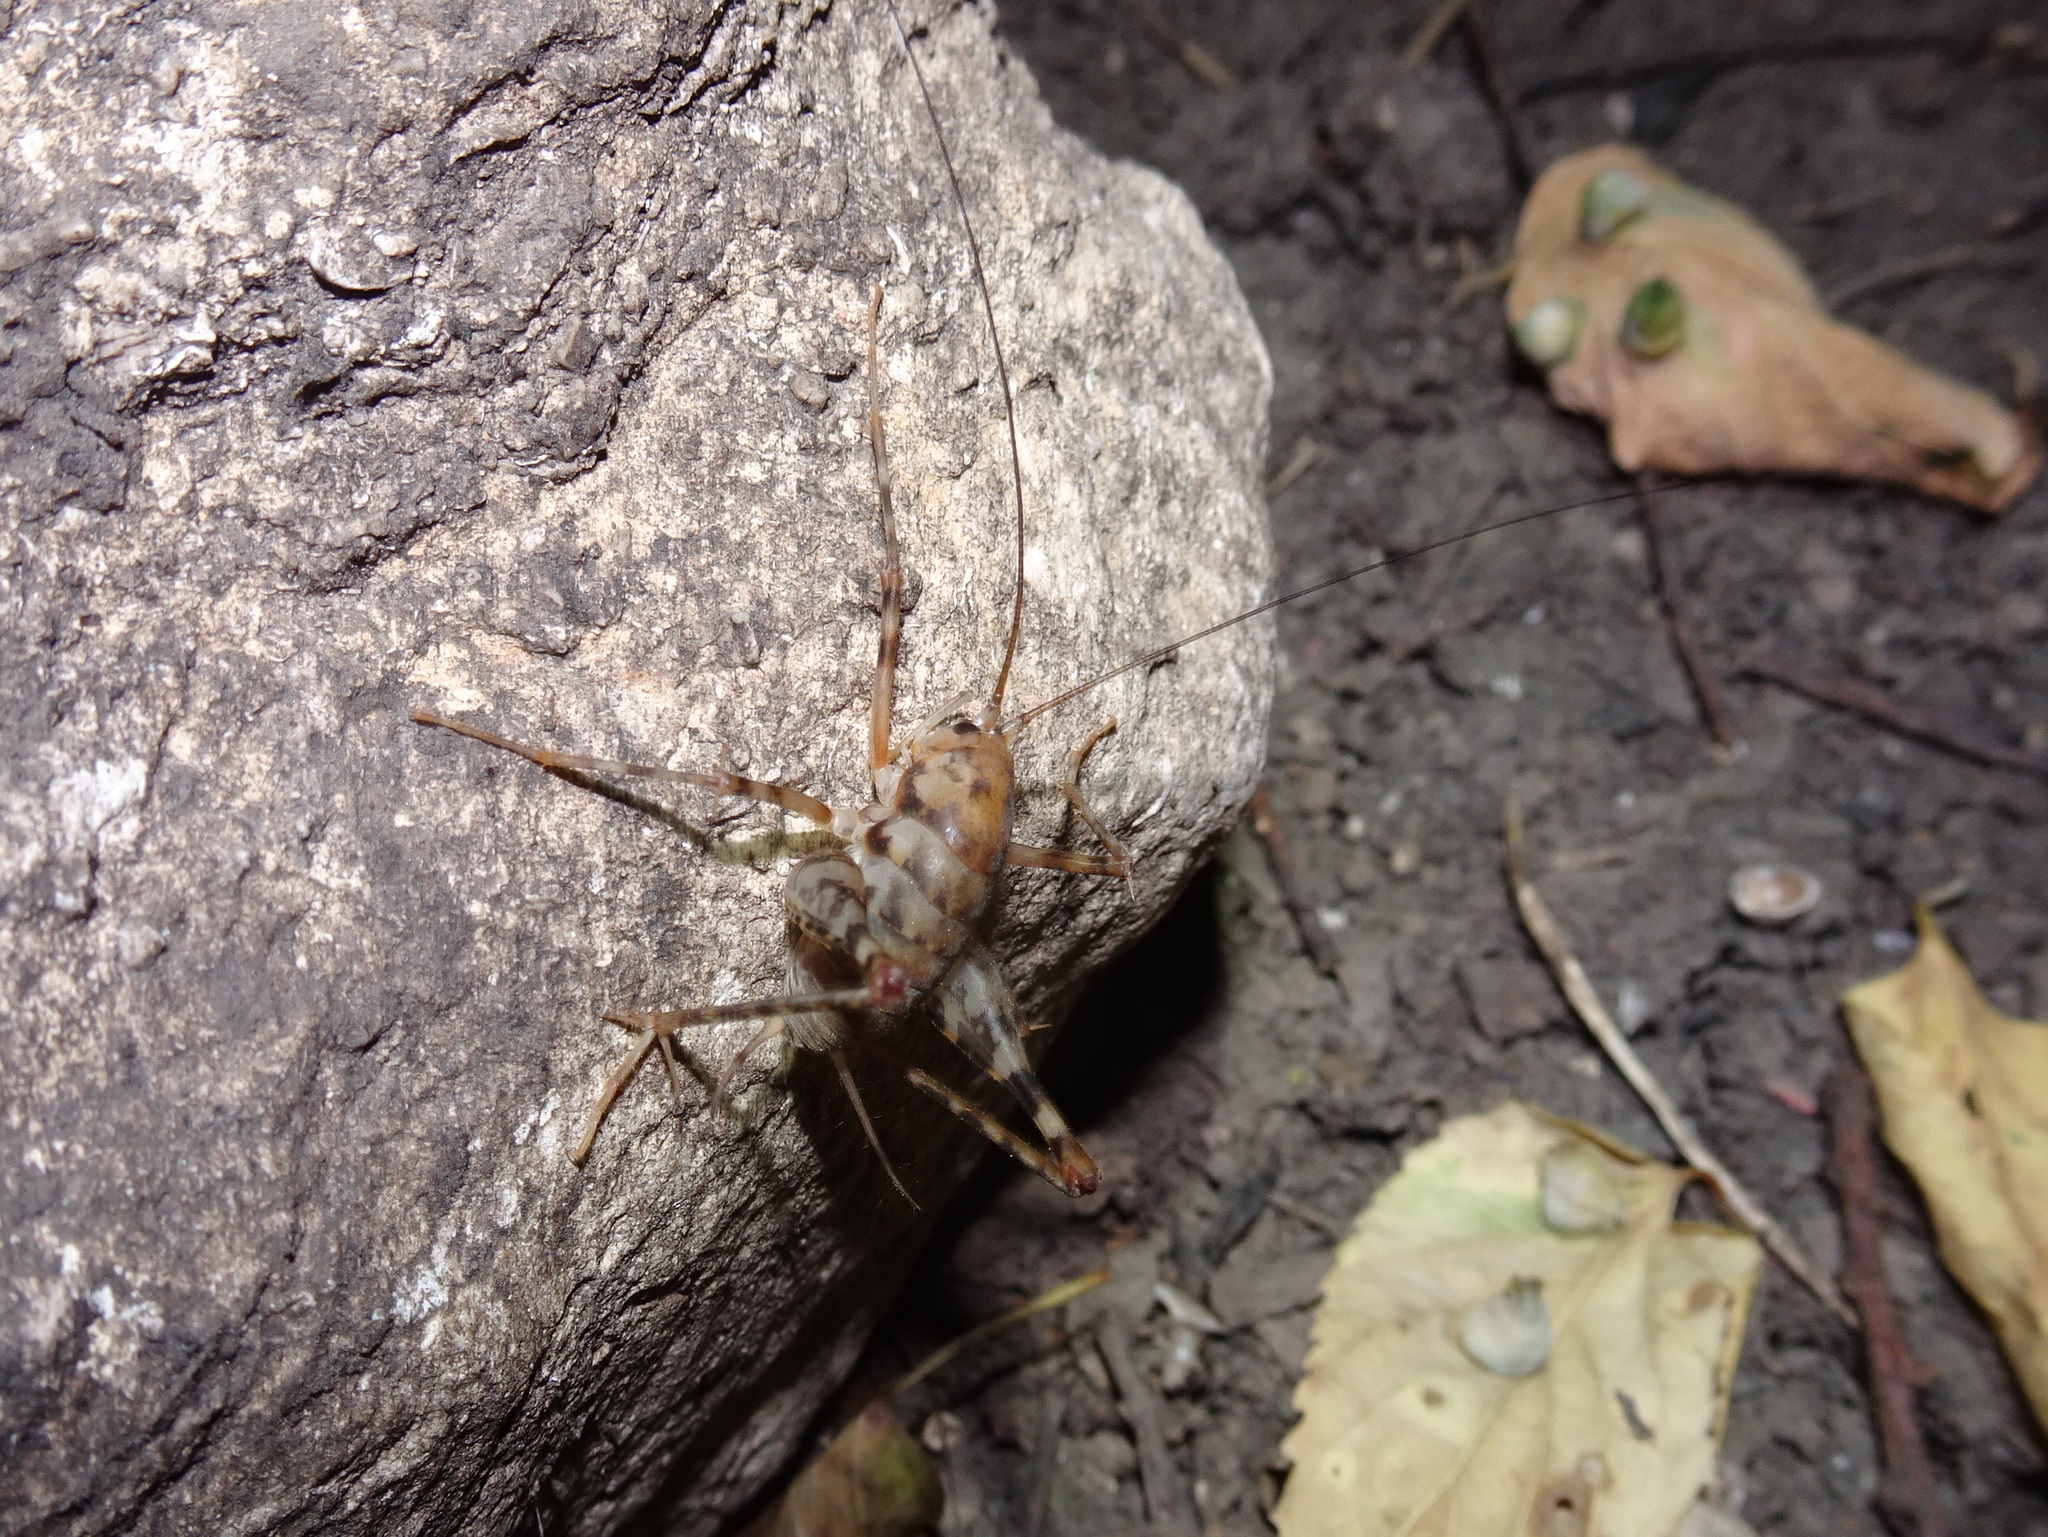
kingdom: Animalia
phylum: Arthropoda
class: Insecta
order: Orthoptera
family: Rhaphidophoridae
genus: Tachycines
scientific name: Tachycines asynamorus
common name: Greenhouse camel cricket
